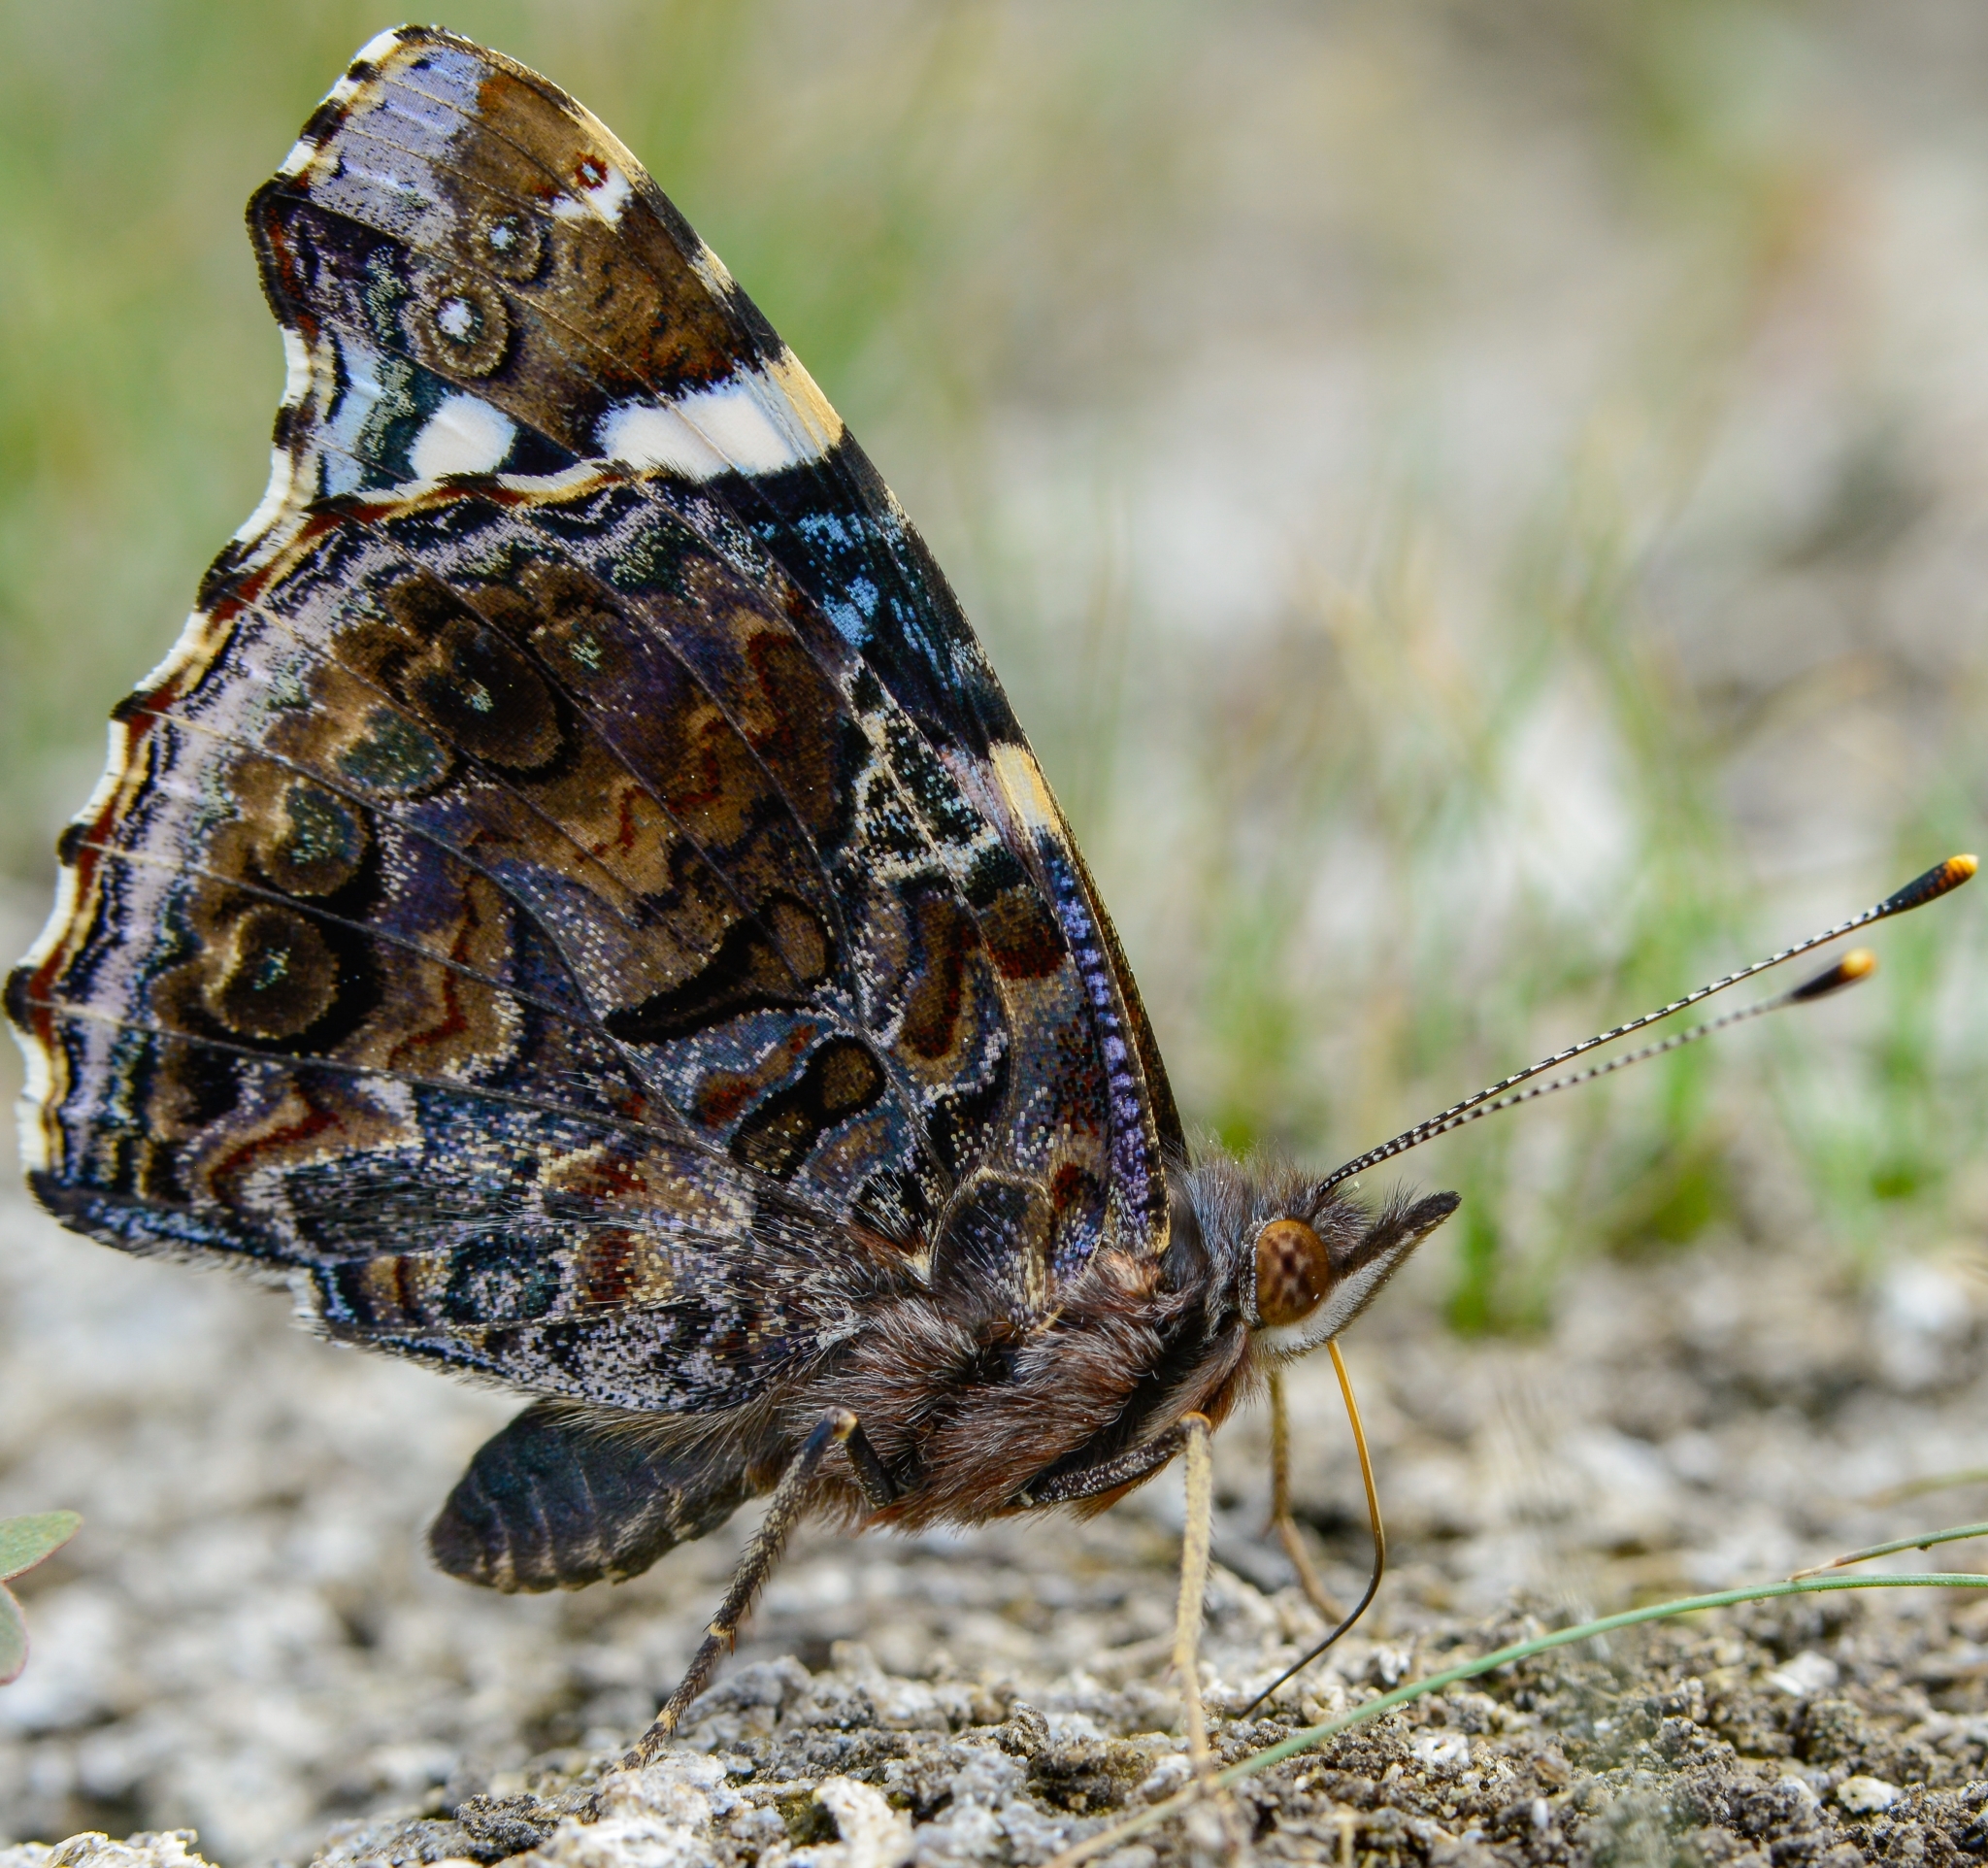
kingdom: Animalia
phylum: Arthropoda
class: Insecta
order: Lepidoptera
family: Nymphalidae
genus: Vanessa
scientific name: Vanessa atalanta
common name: Red admiral
